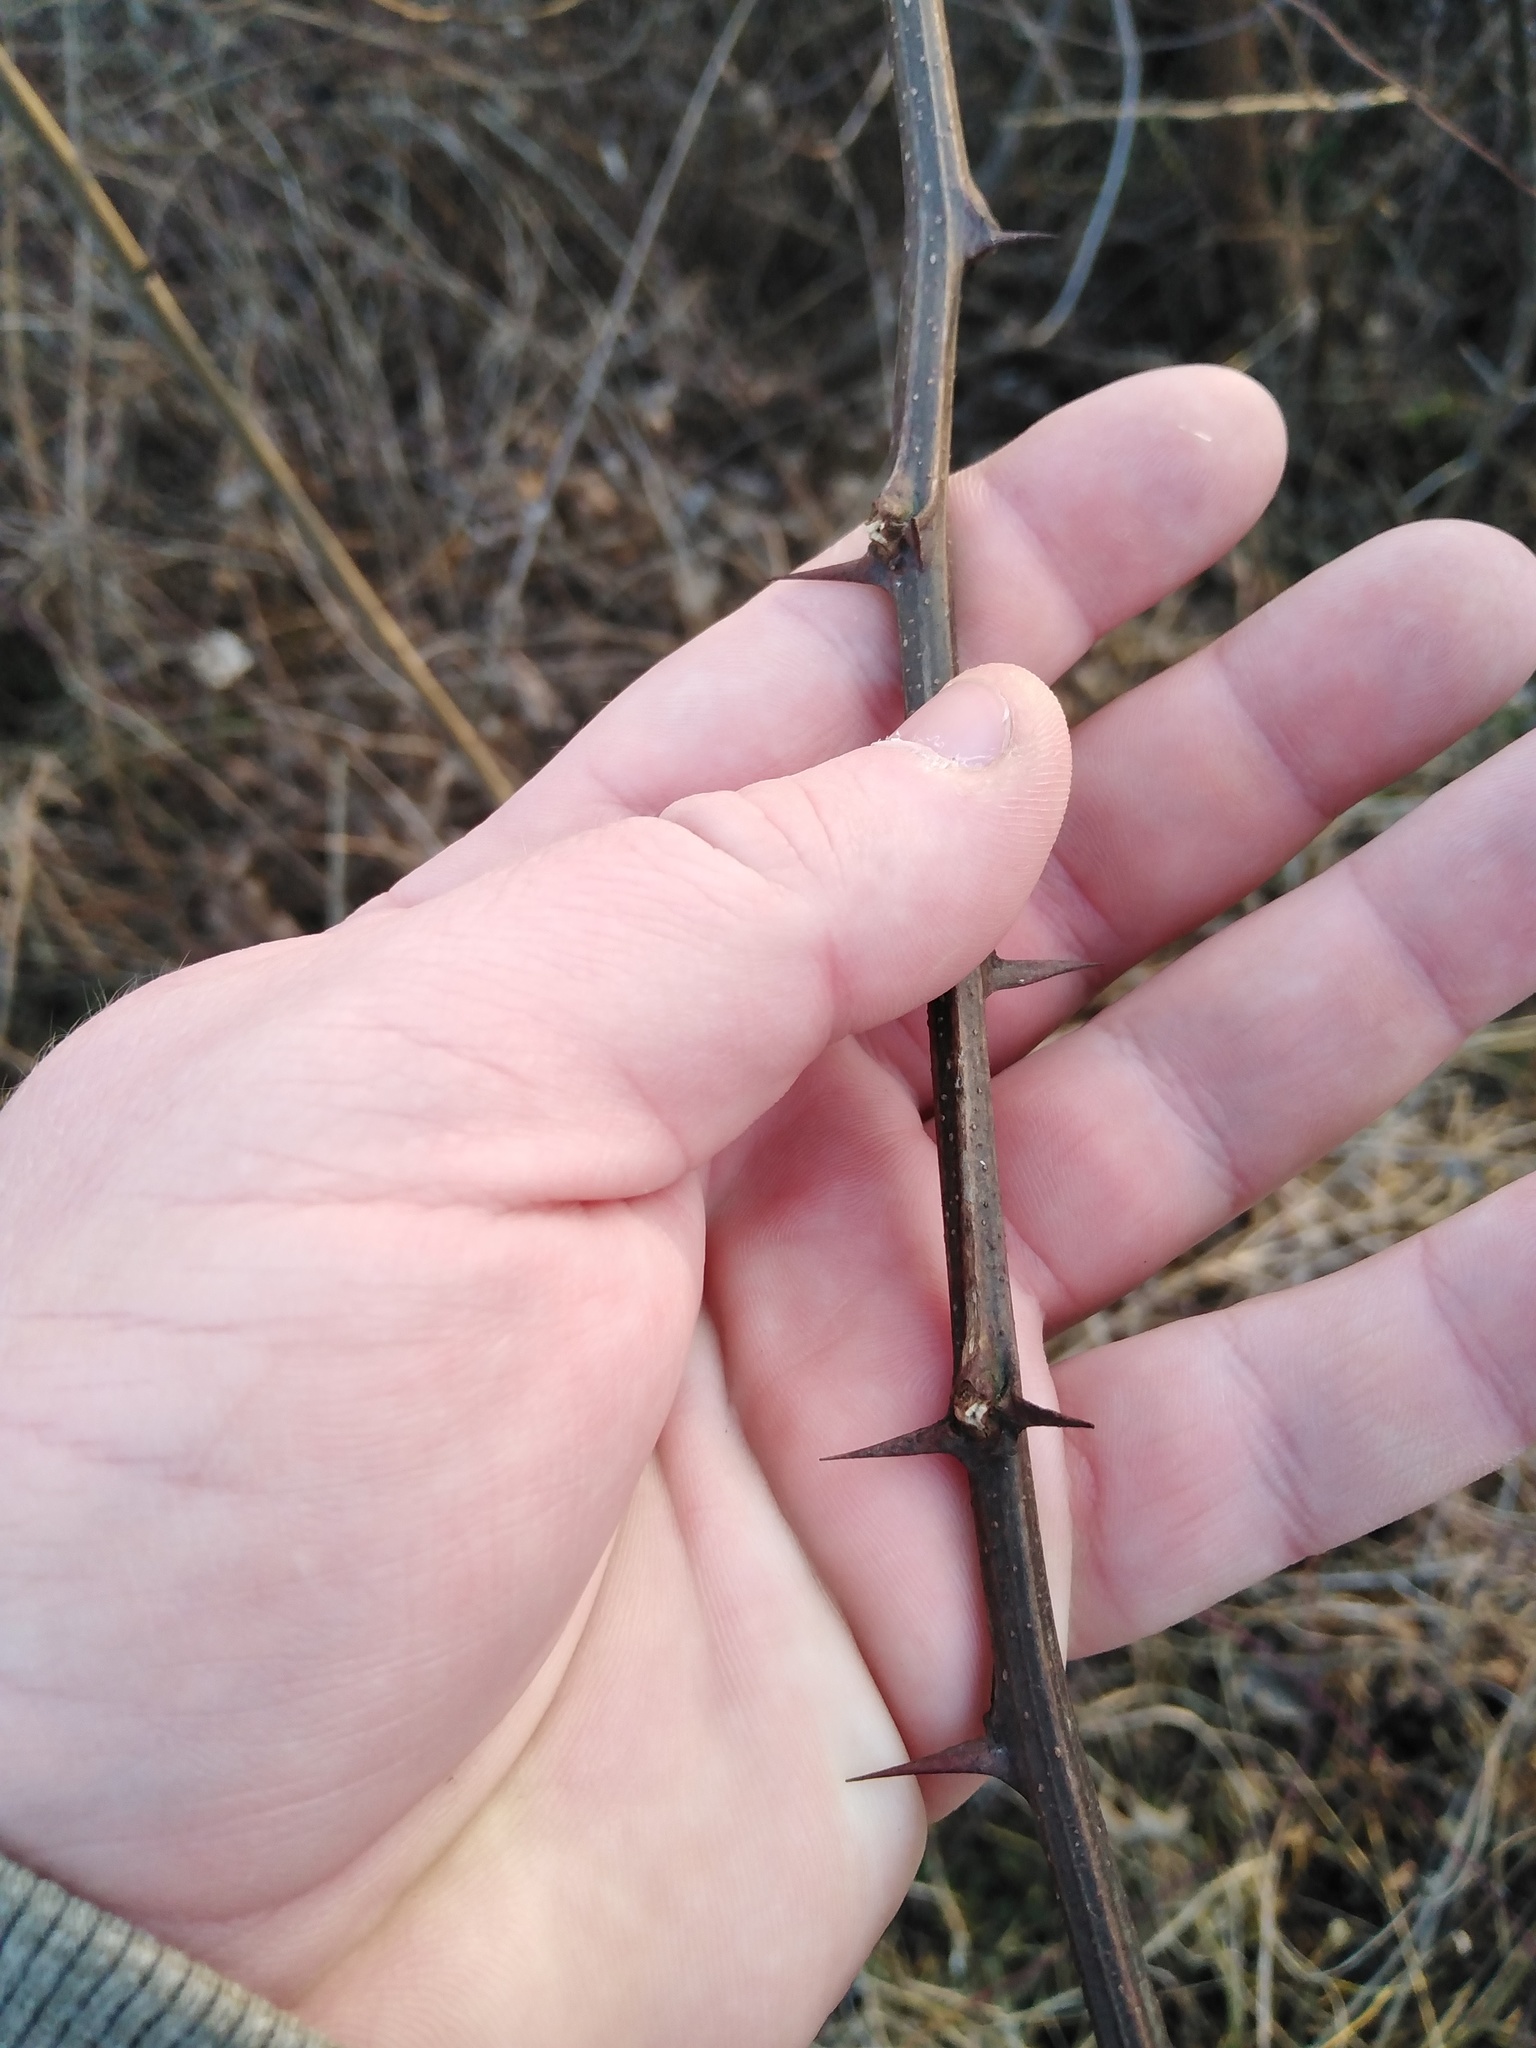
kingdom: Plantae
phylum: Tracheophyta
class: Magnoliopsida
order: Fabales
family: Fabaceae
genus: Robinia
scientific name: Robinia pseudoacacia
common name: Black locust
